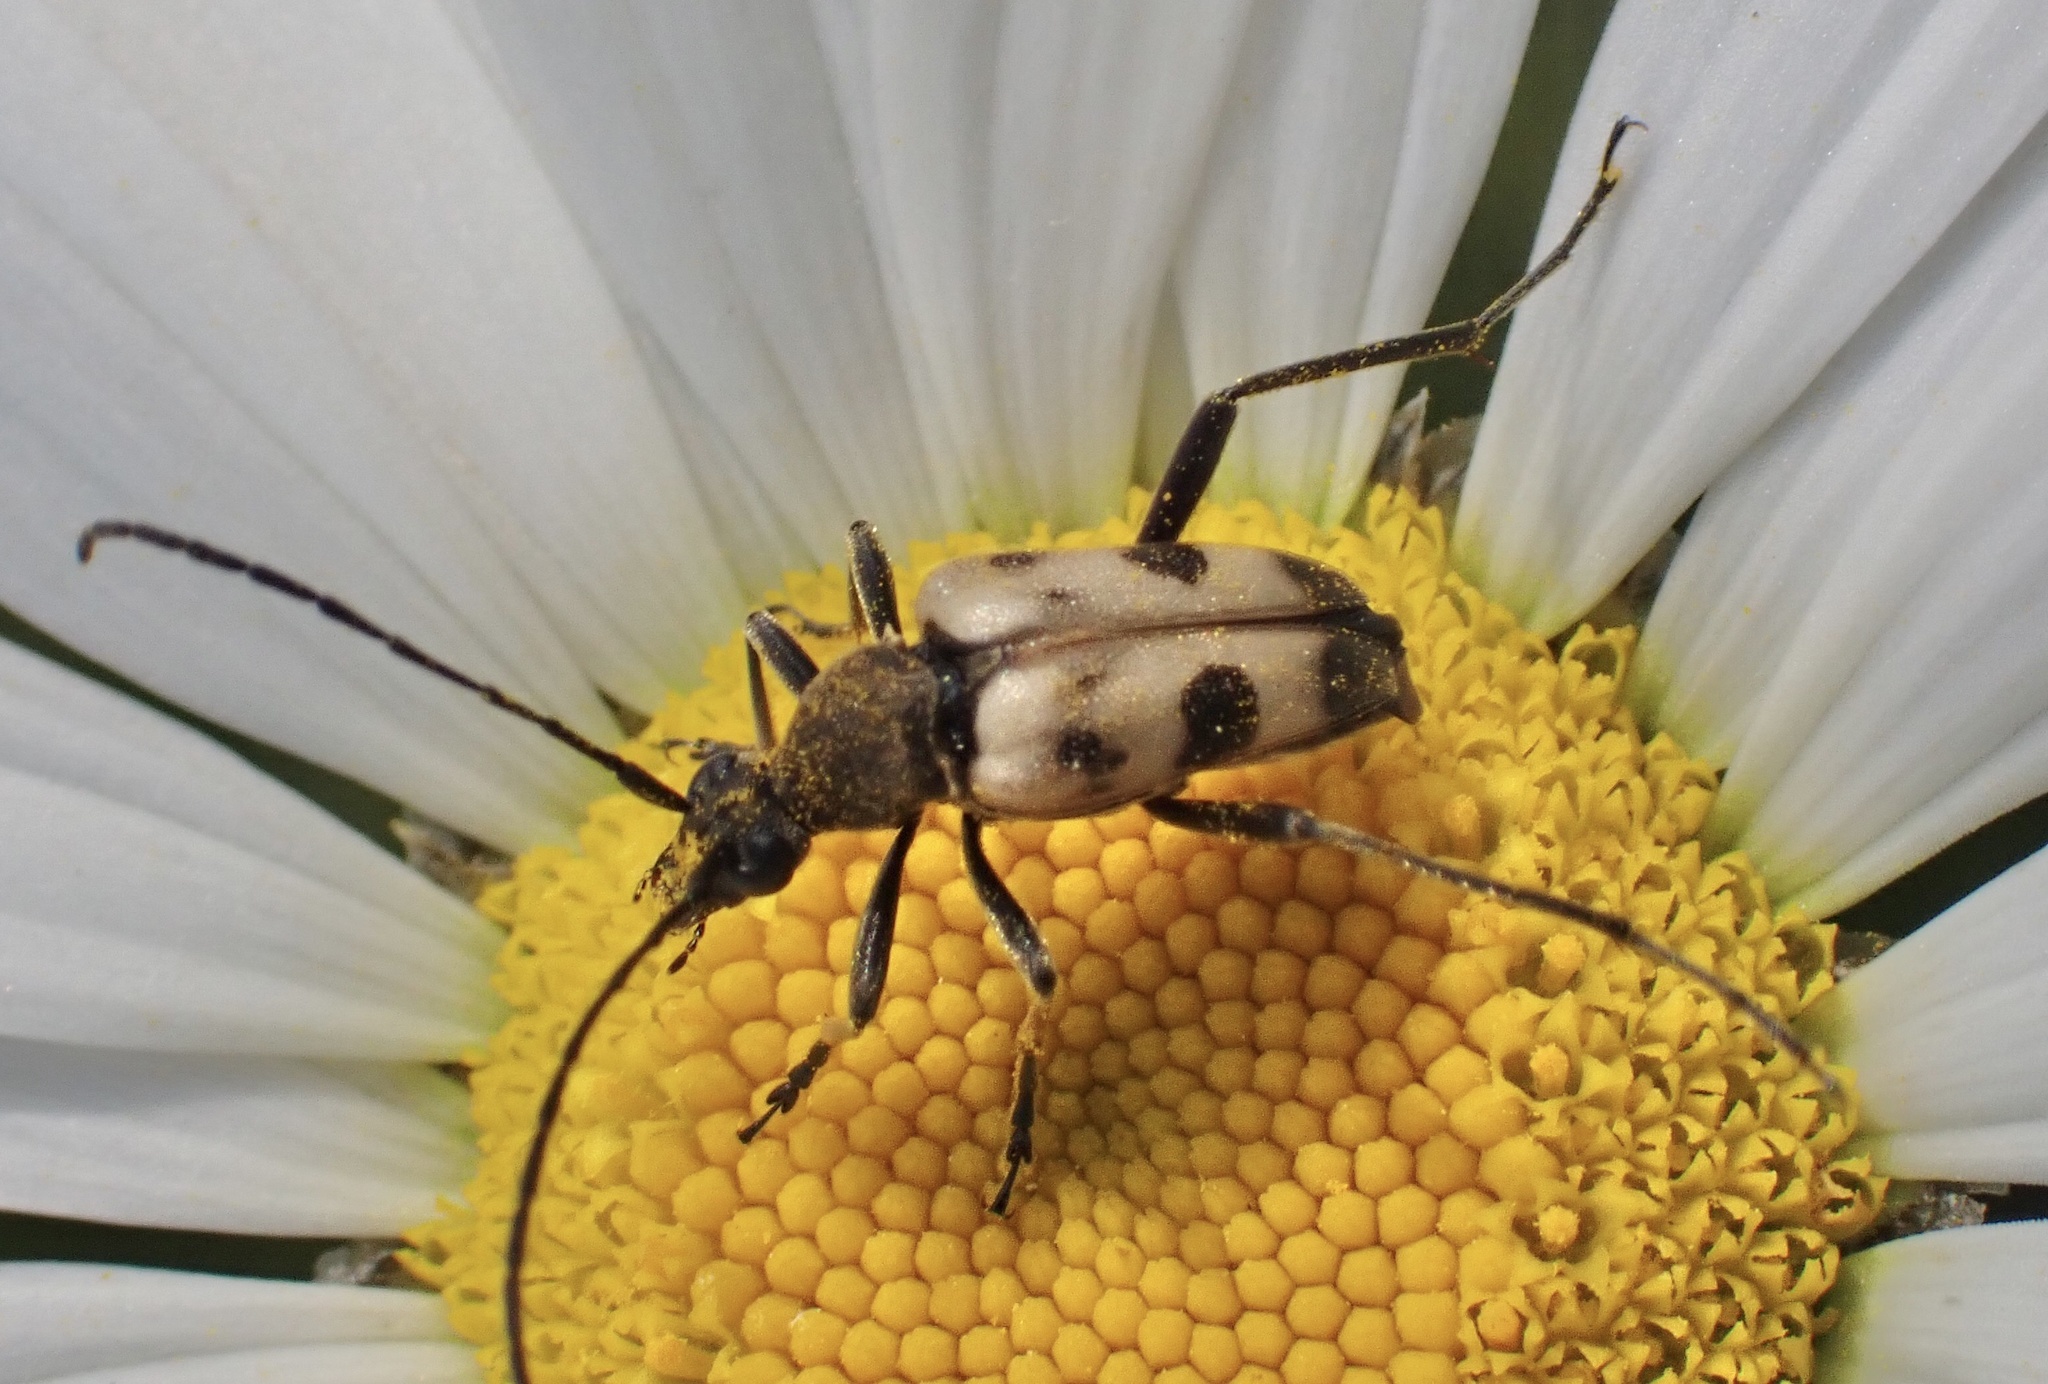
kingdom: Animalia
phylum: Arthropoda
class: Insecta
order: Coleoptera
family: Cerambycidae
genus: Pachytodes
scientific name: Pachytodes cerambyciformis
